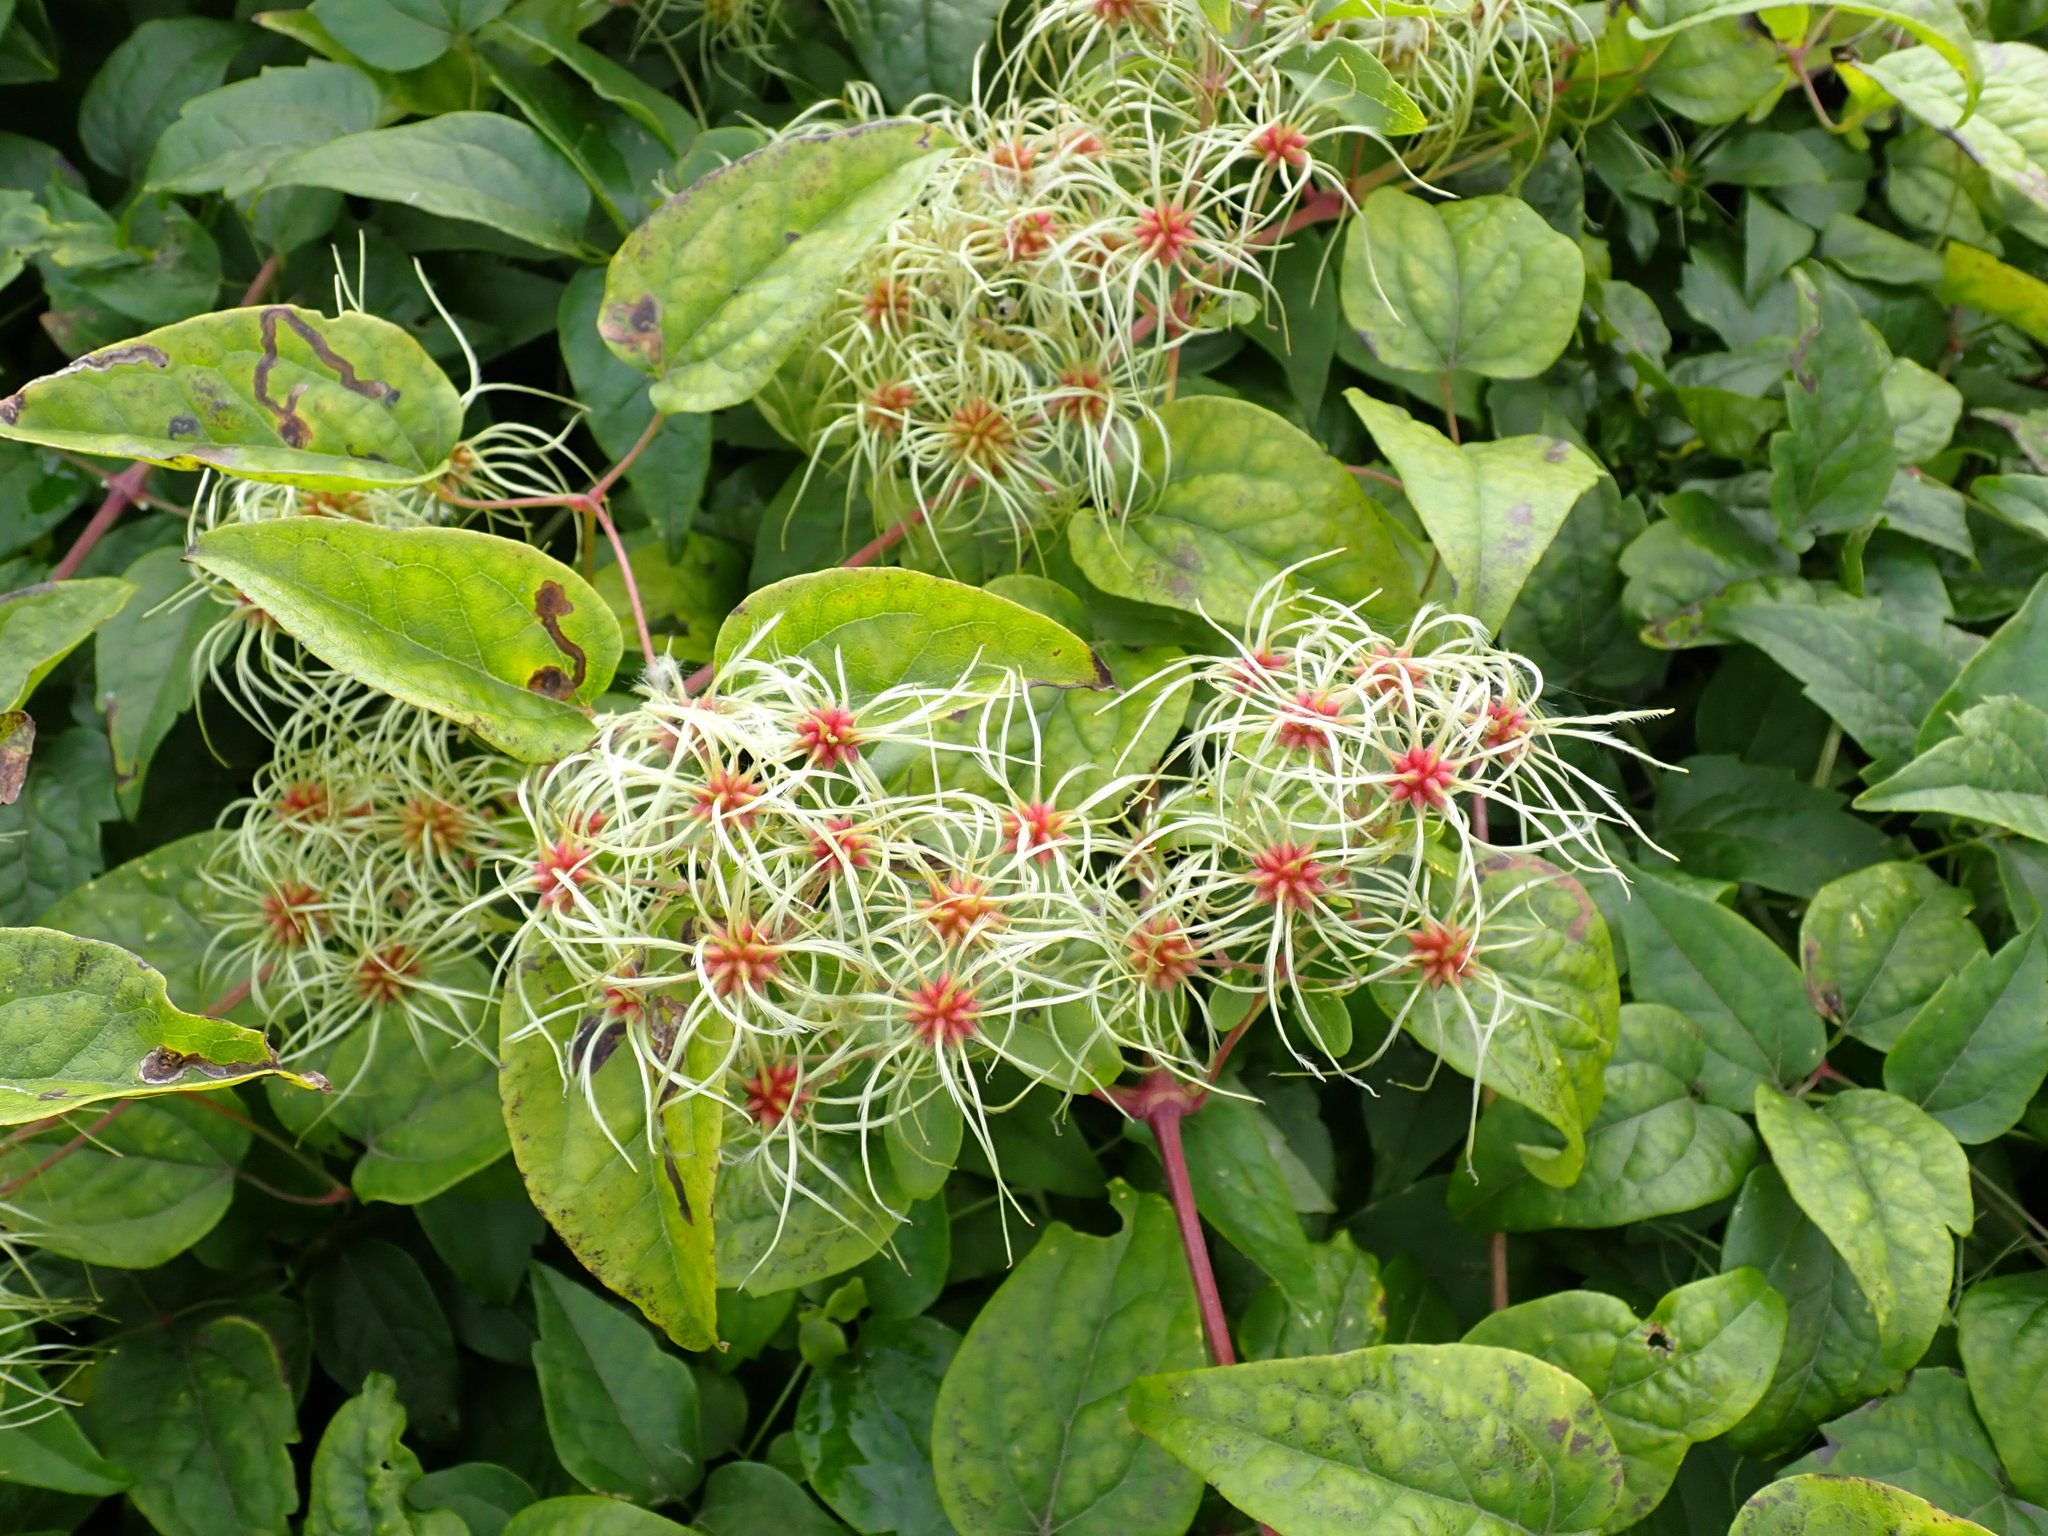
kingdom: Plantae
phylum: Tracheophyta
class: Magnoliopsida
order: Ranunculales
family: Ranunculaceae
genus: Clematis
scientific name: Clematis vitalba
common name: Evergreen clematis
